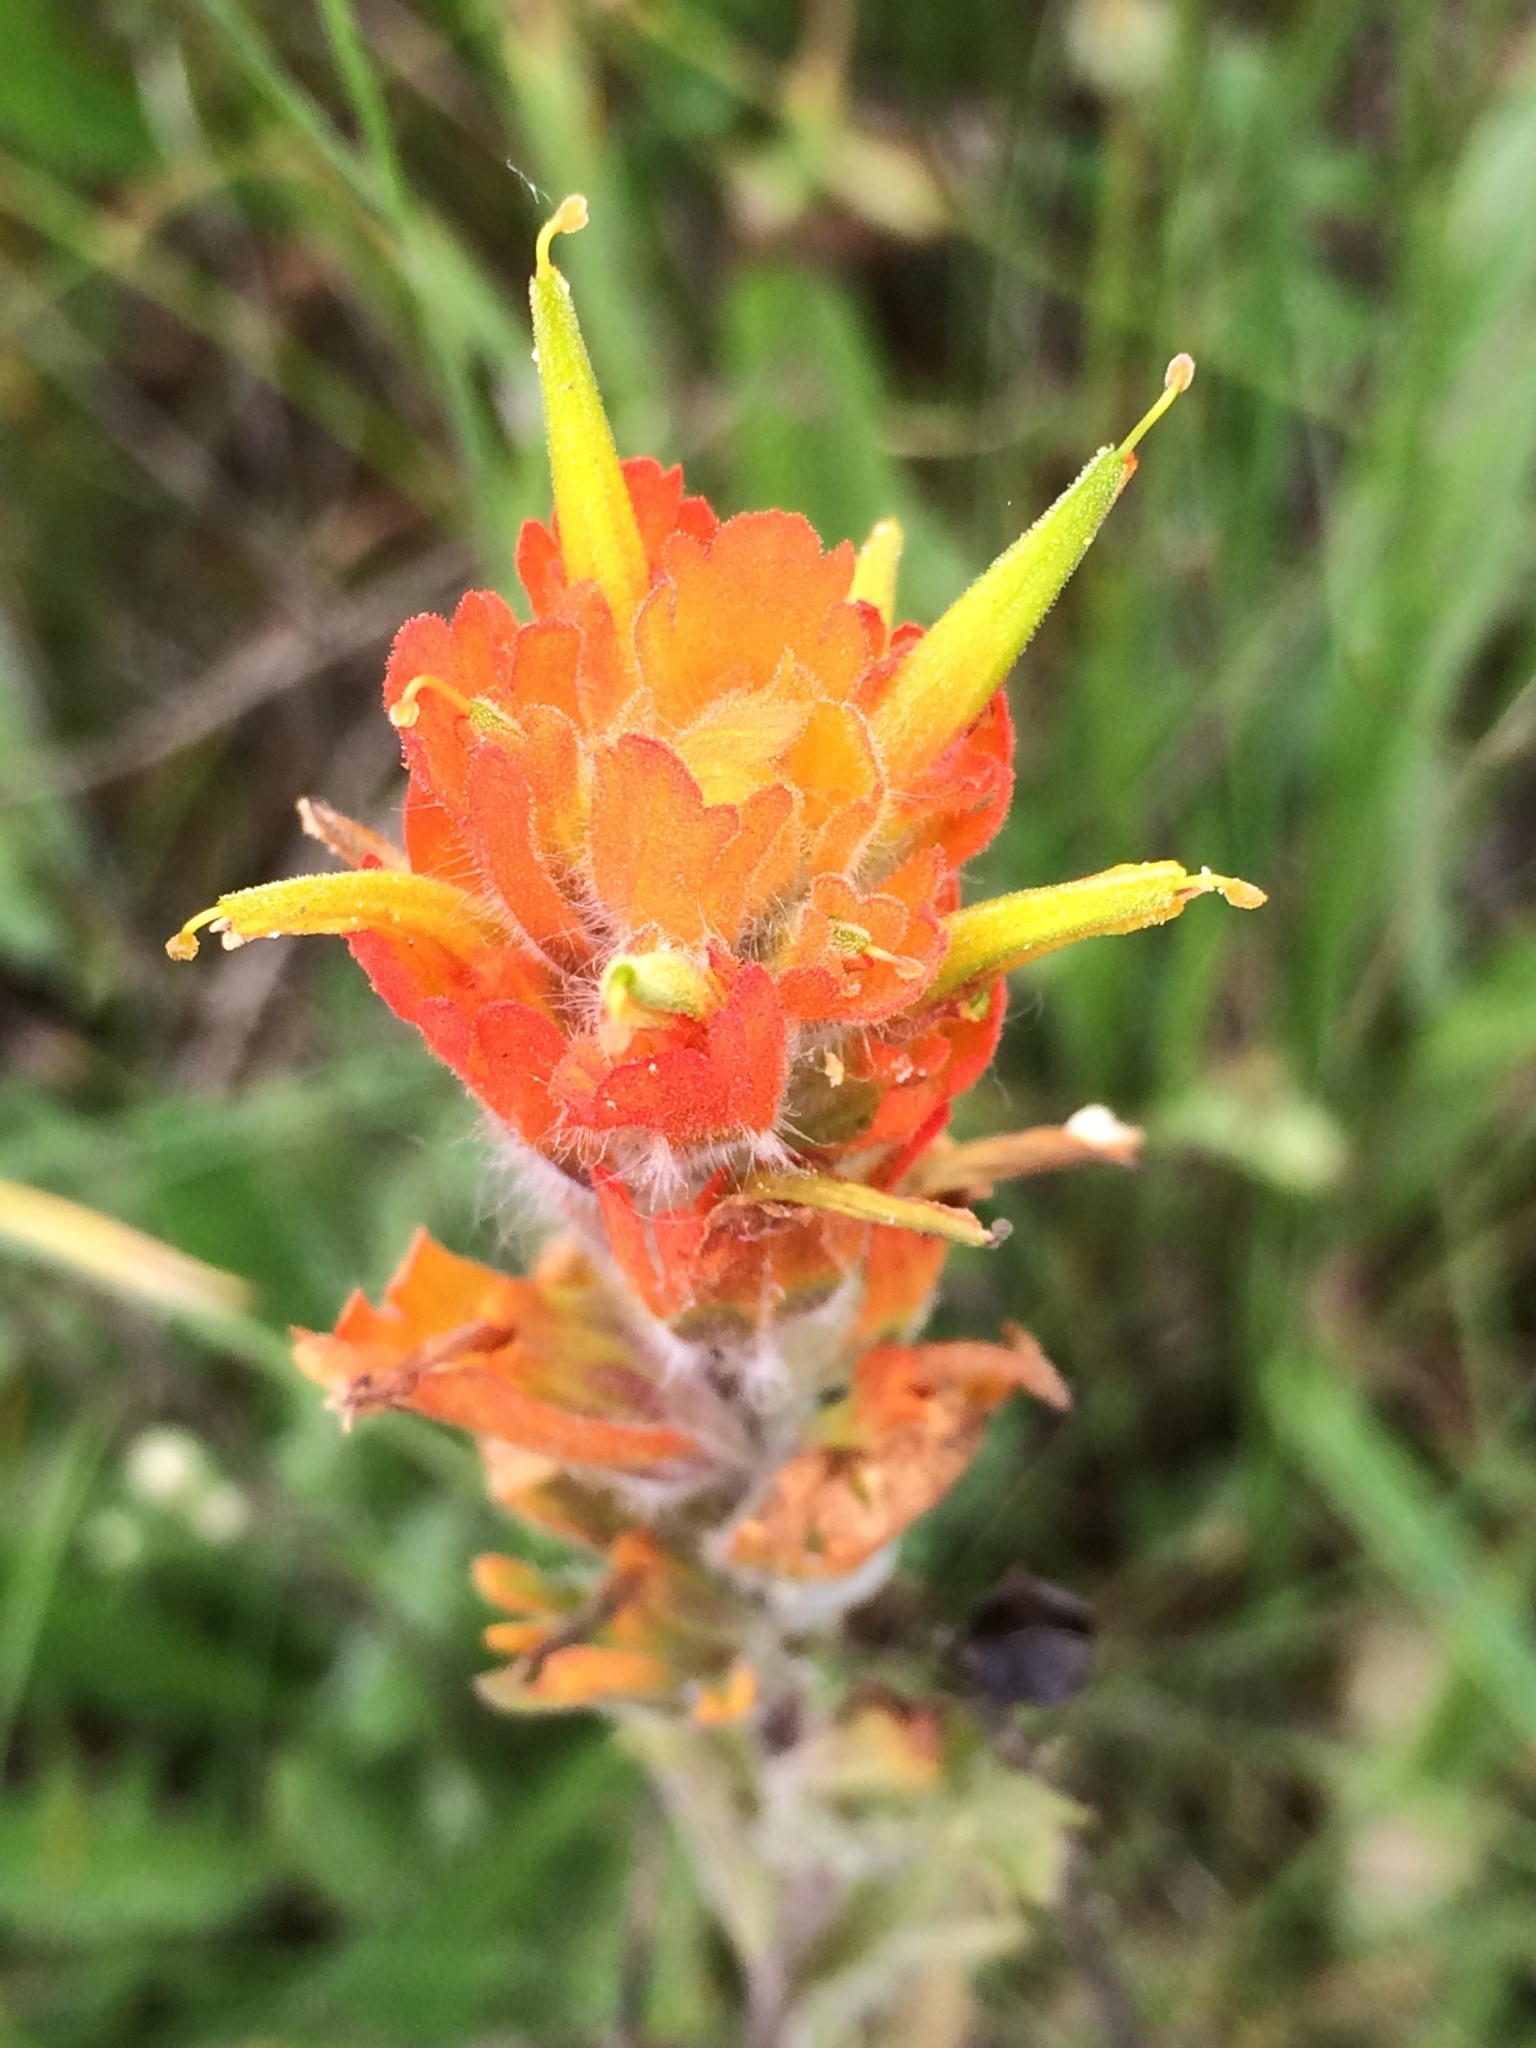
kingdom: Plantae
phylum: Tracheophyta
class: Magnoliopsida
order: Lamiales
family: Orobanchaceae
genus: Castilleja
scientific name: Castilleja hispida
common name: Bristly paintbrush
